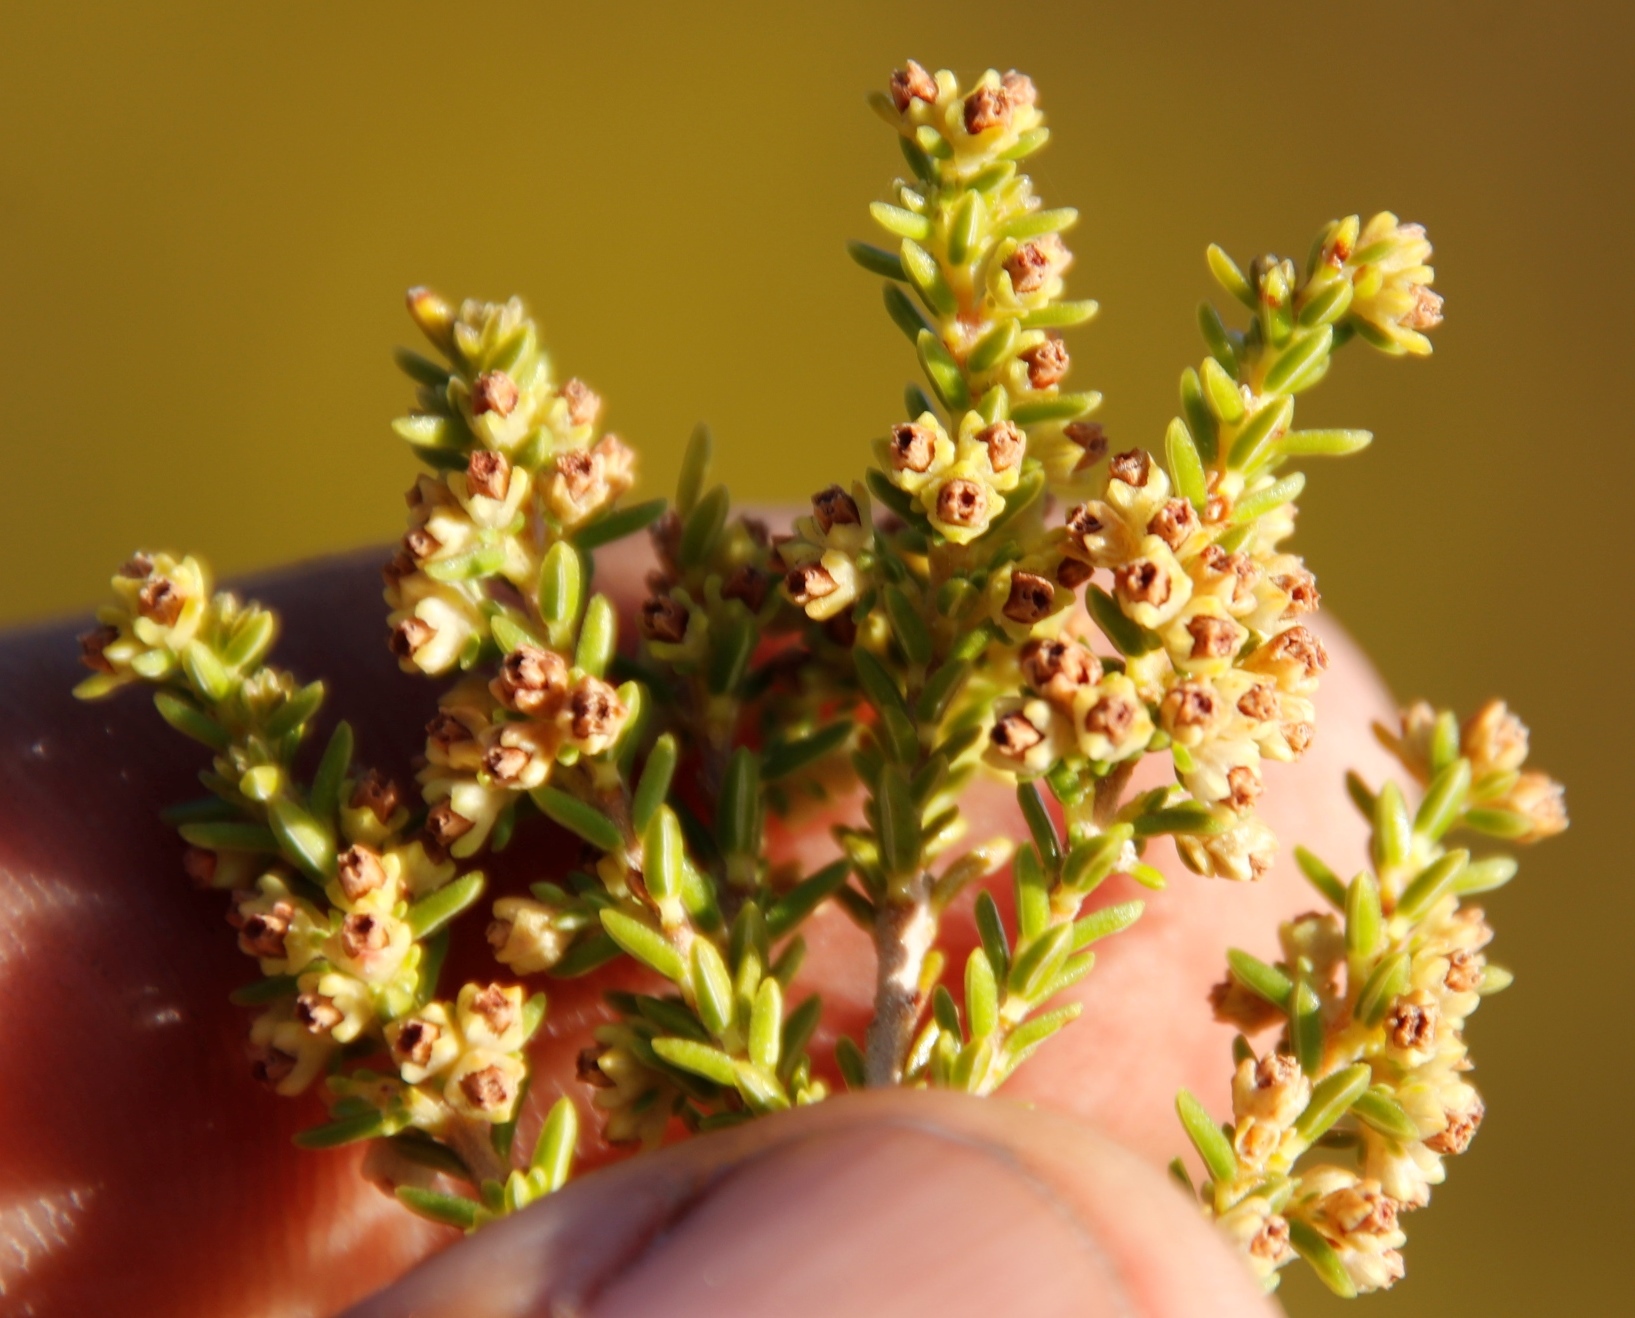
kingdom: Plantae
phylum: Tracheophyta
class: Magnoliopsida
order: Ericales
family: Ericaceae
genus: Erica
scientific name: Erica serrata
